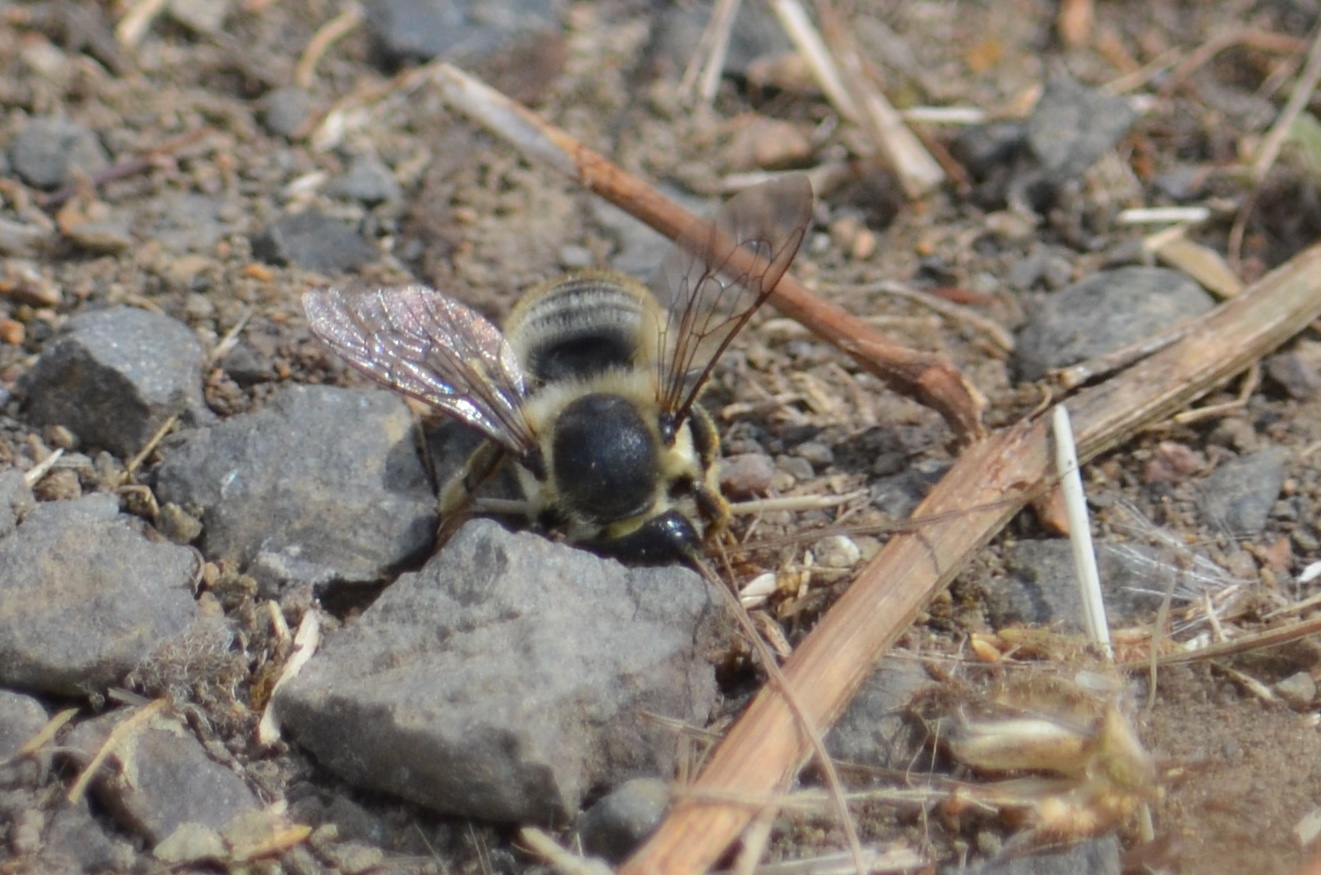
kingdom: Animalia
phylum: Arthropoda
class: Insecta
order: Hymenoptera
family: Megachilidae
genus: Megachile
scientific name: Megachile perihirta
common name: Western leafcutter
